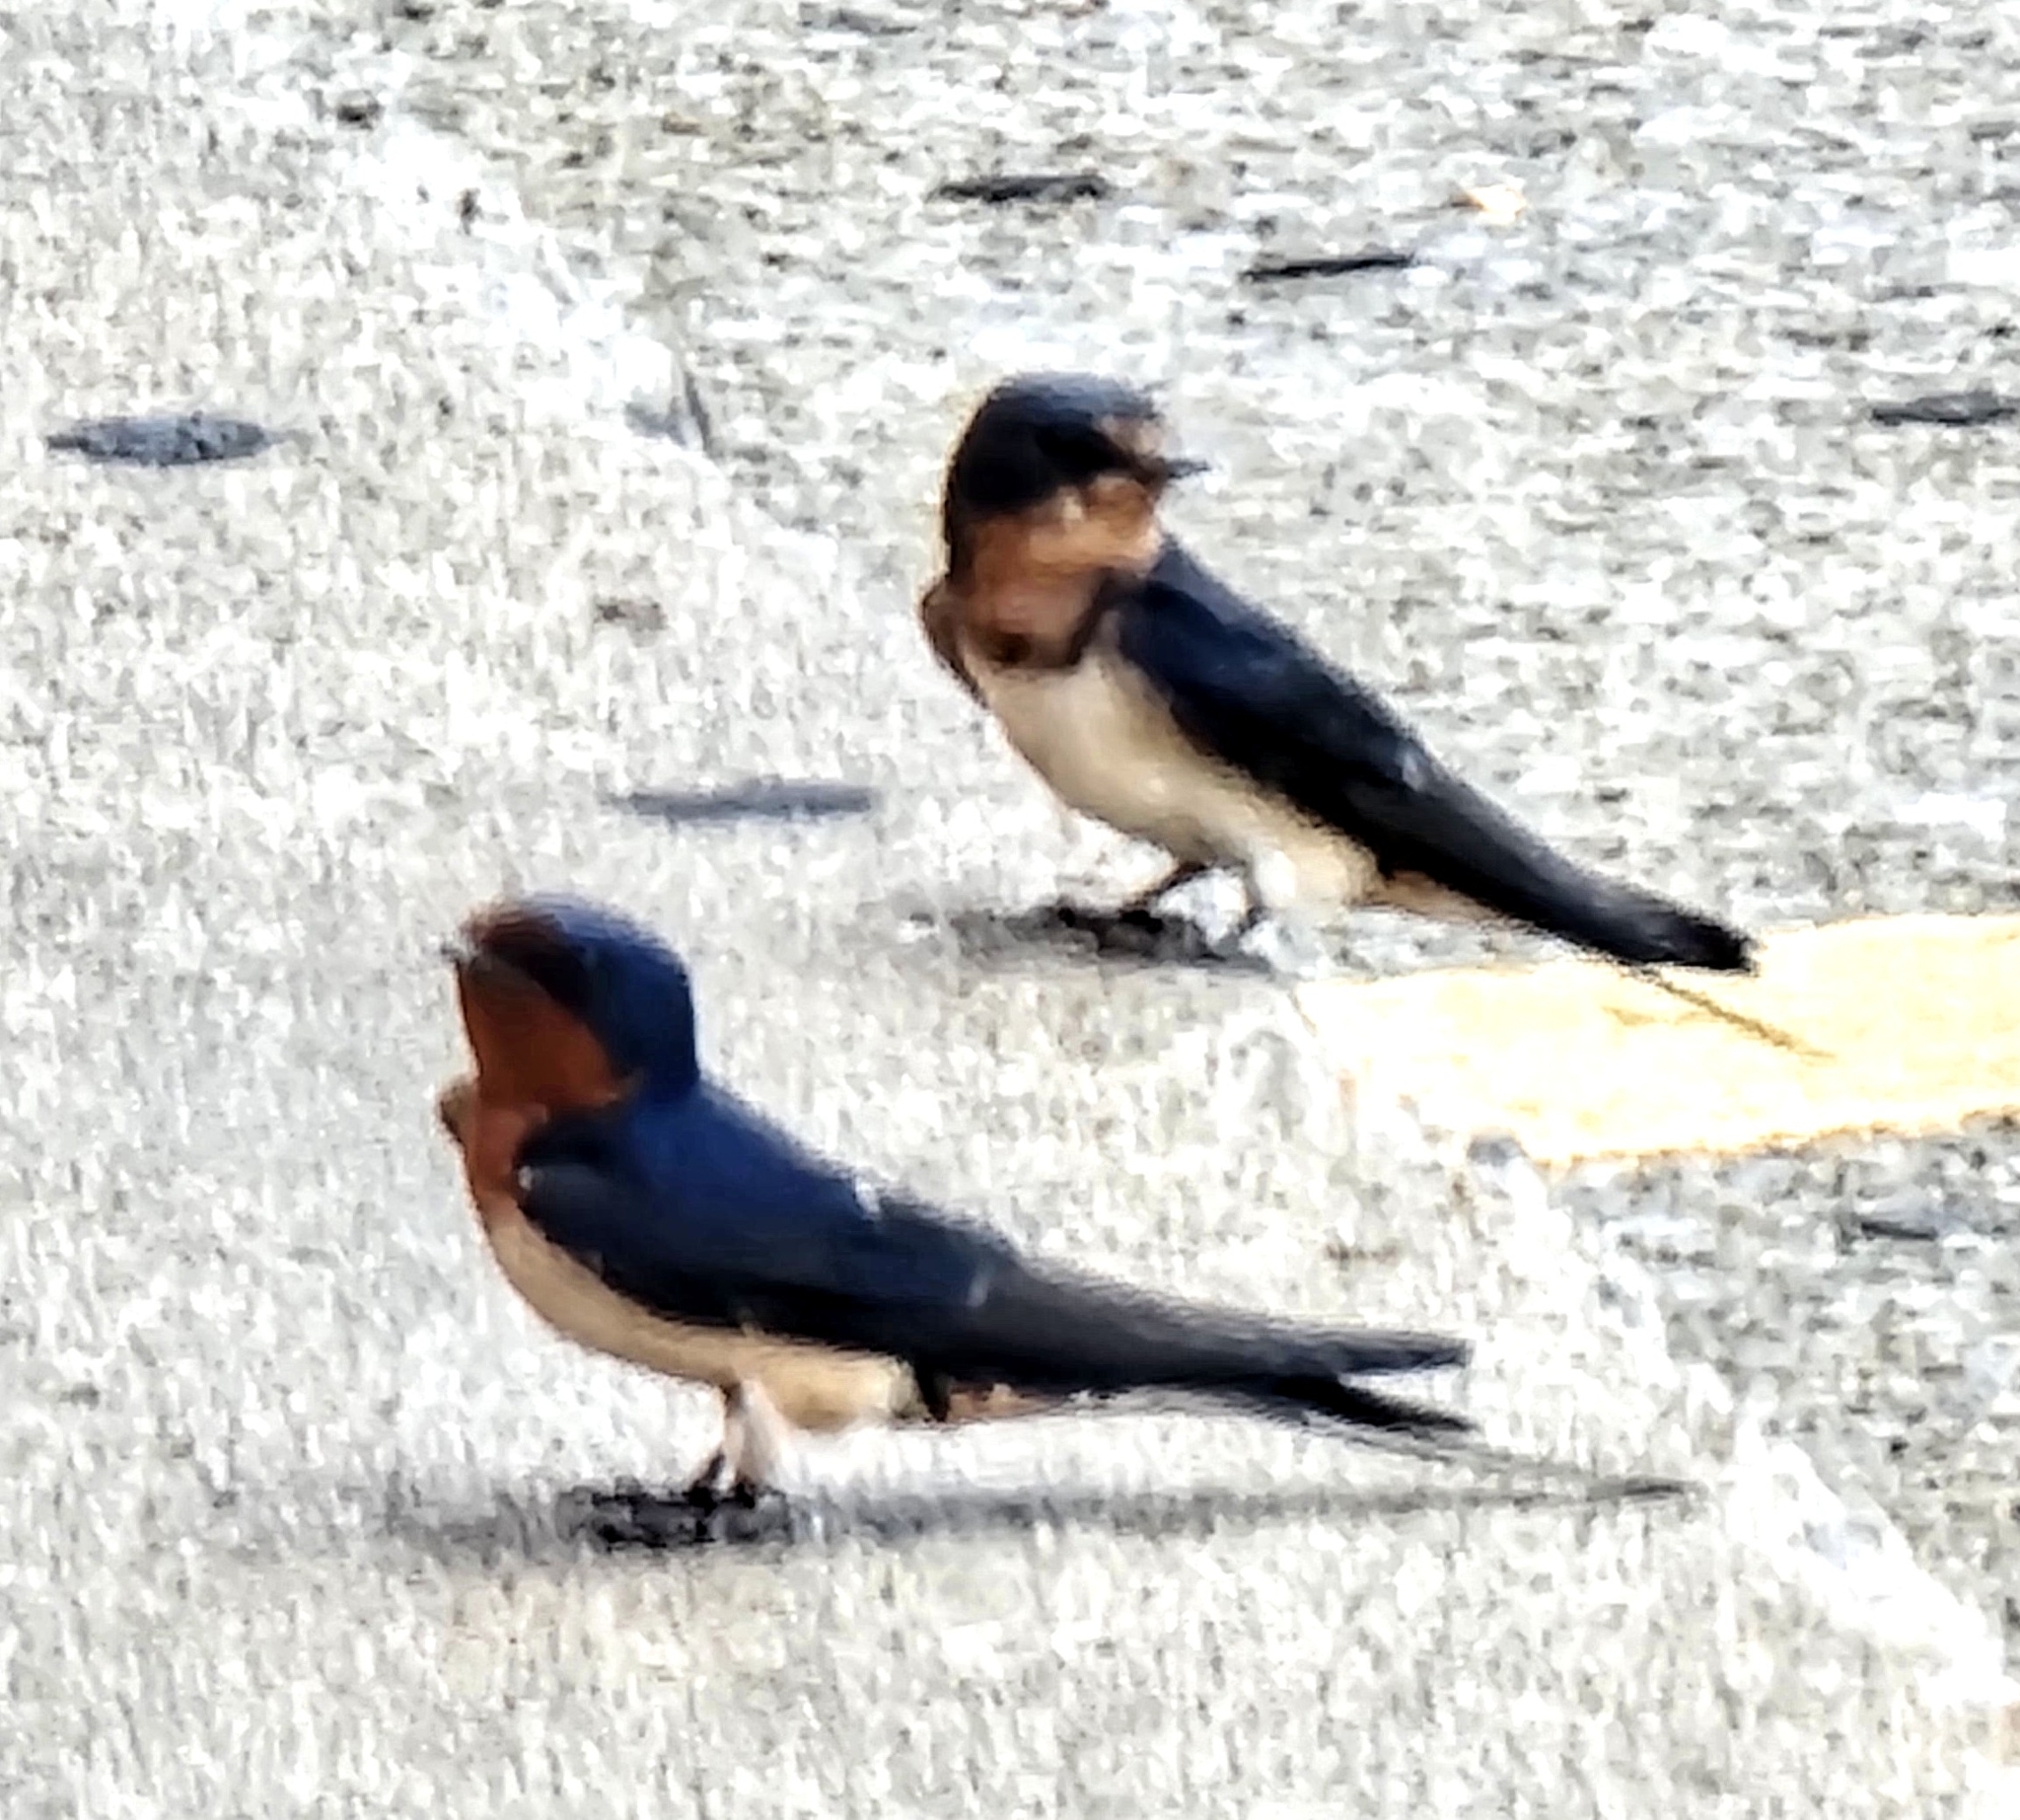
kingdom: Animalia
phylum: Chordata
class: Aves
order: Passeriformes
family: Hirundinidae
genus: Hirundo
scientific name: Hirundo rustica
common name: Barn swallow
